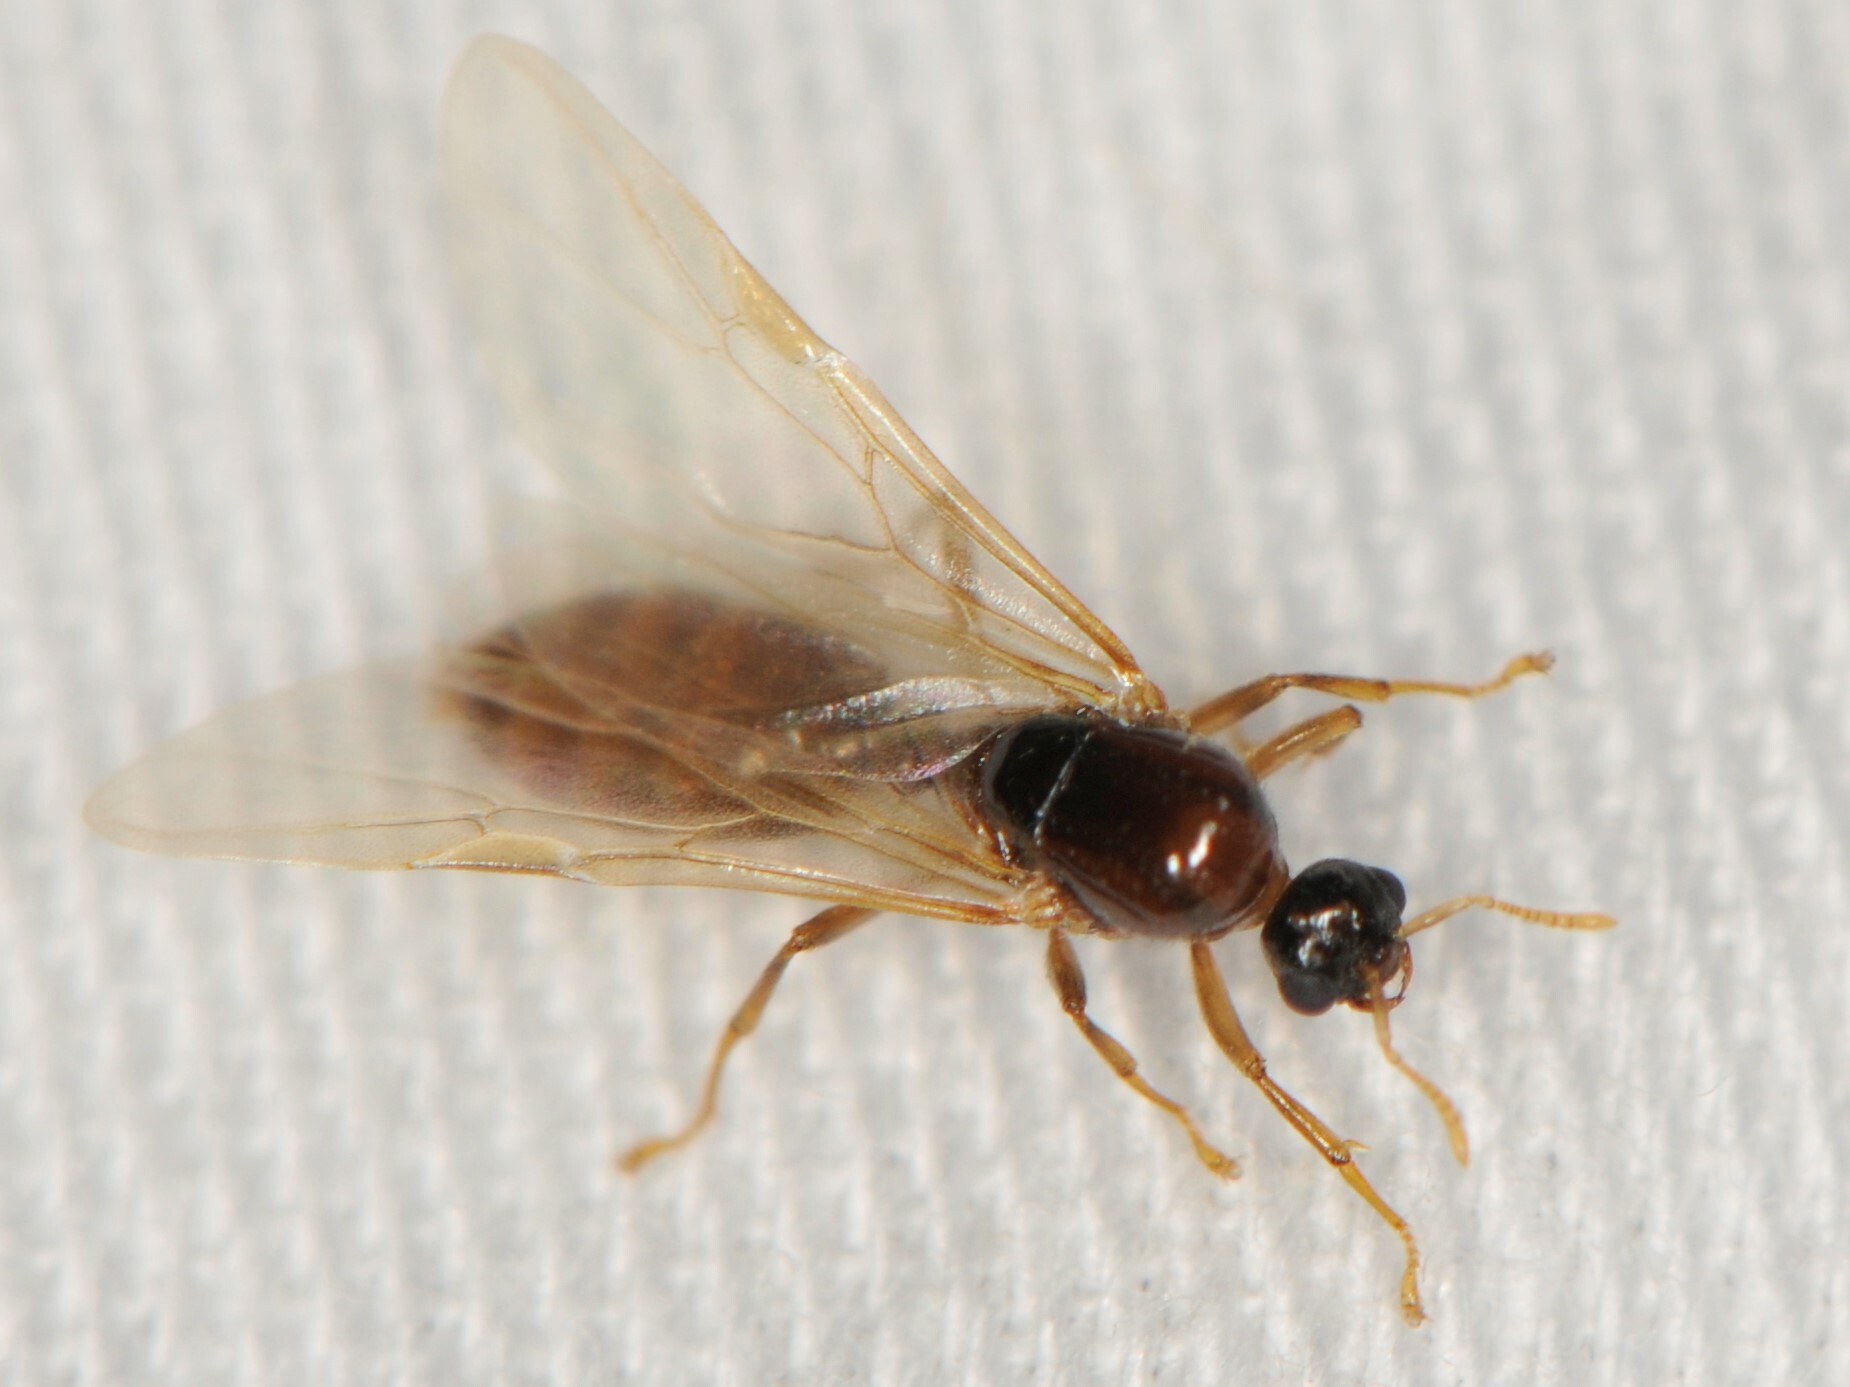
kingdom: Animalia
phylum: Arthropoda
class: Insecta
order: Hymenoptera
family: Formicidae
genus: Dolopomyrmex
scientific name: Dolopomyrmex pilatus
